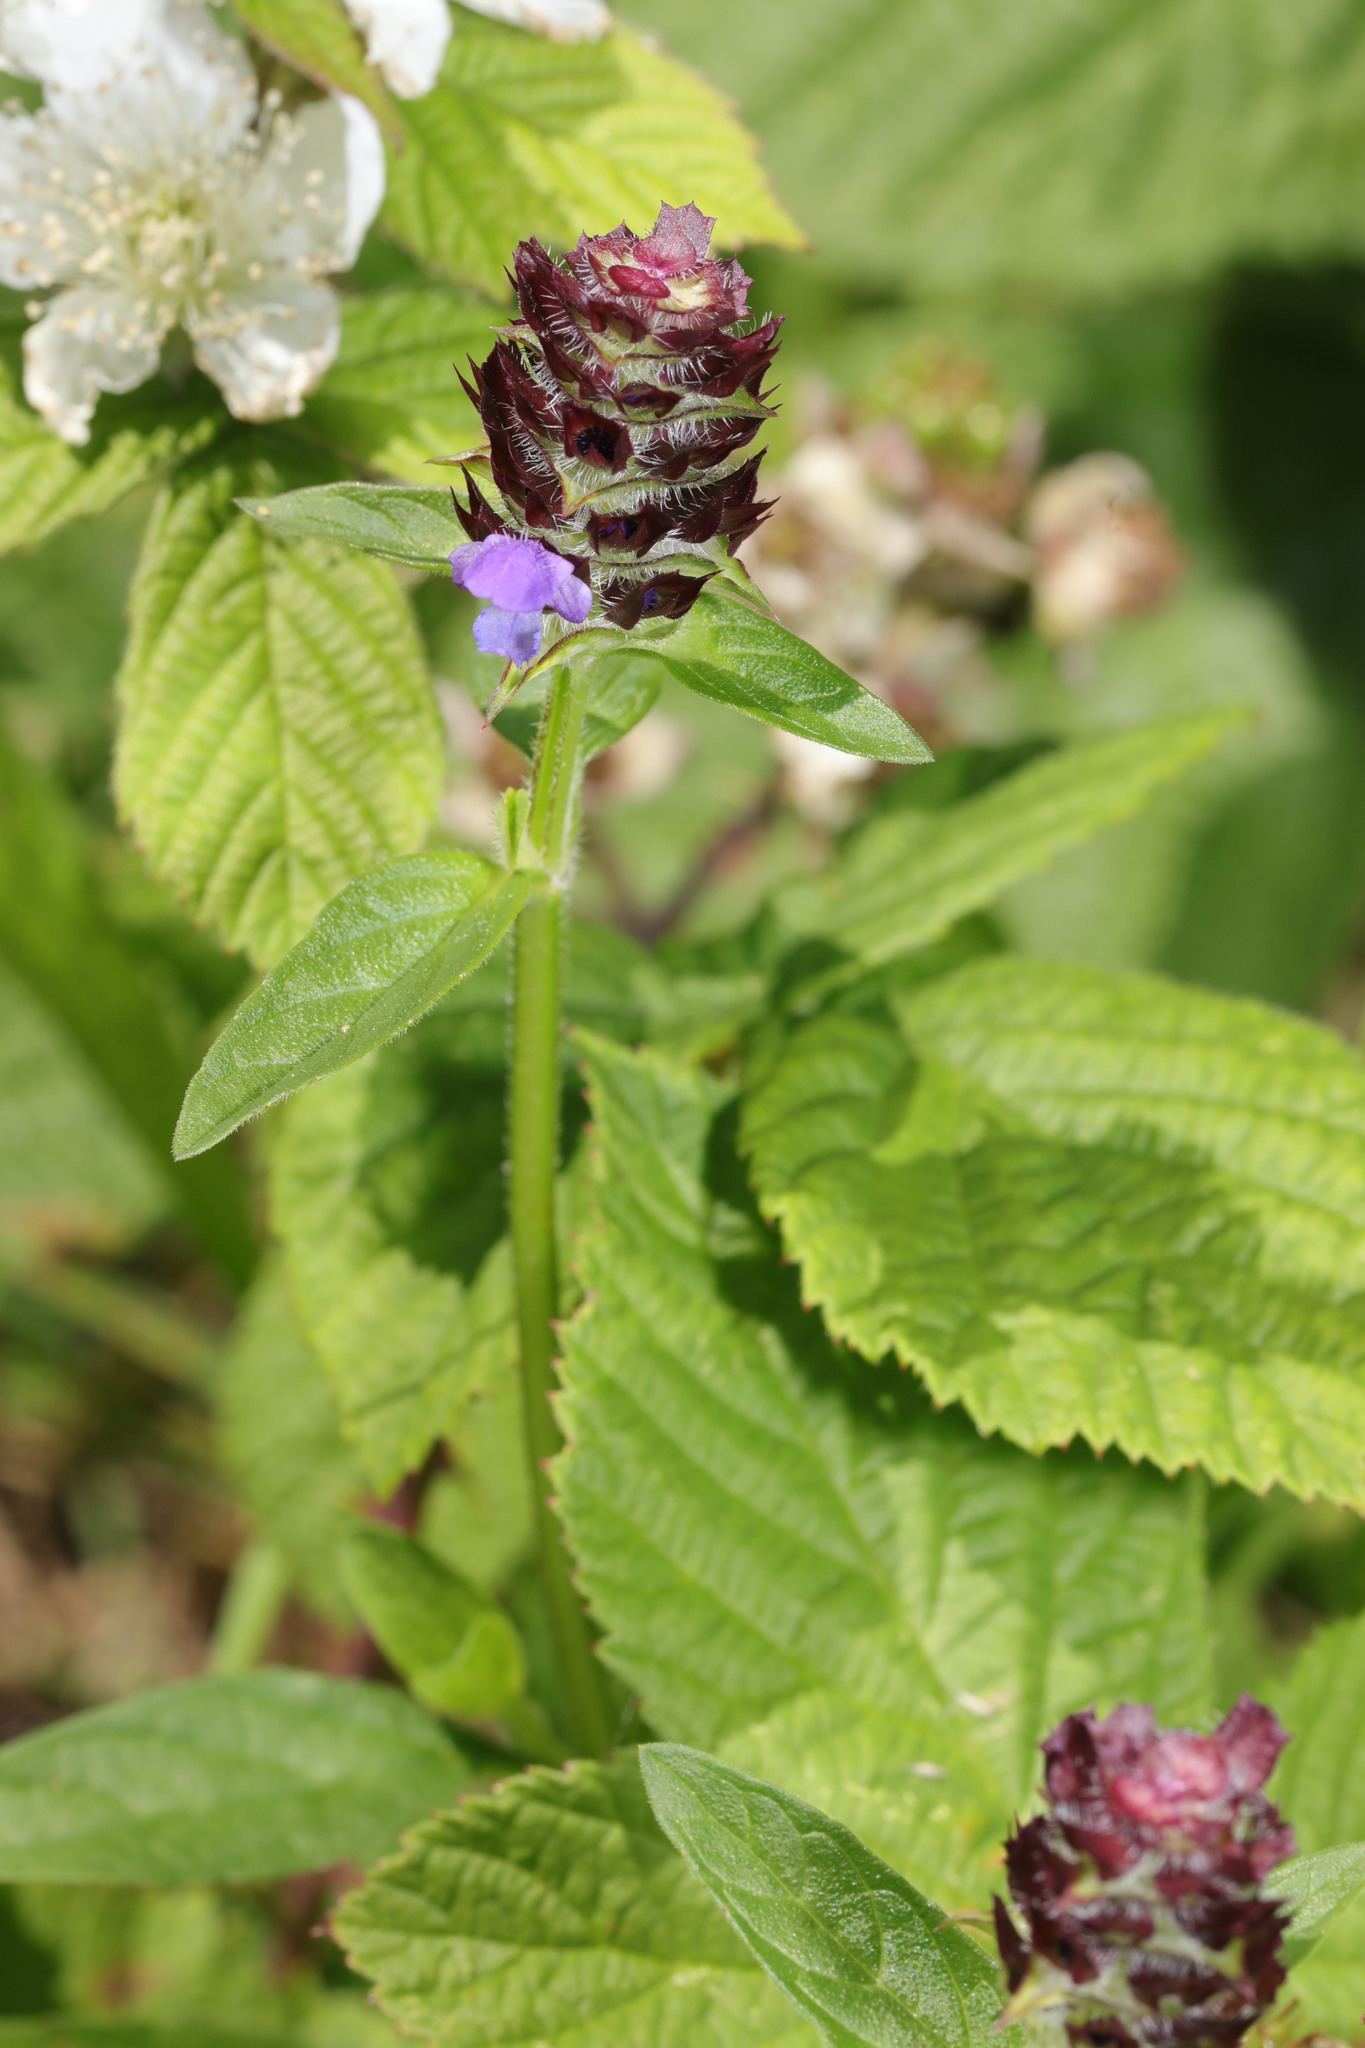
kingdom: Plantae
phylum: Tracheophyta
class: Magnoliopsida
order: Lamiales
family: Lamiaceae
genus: Prunella
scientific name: Prunella vulgaris
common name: Heal-all
